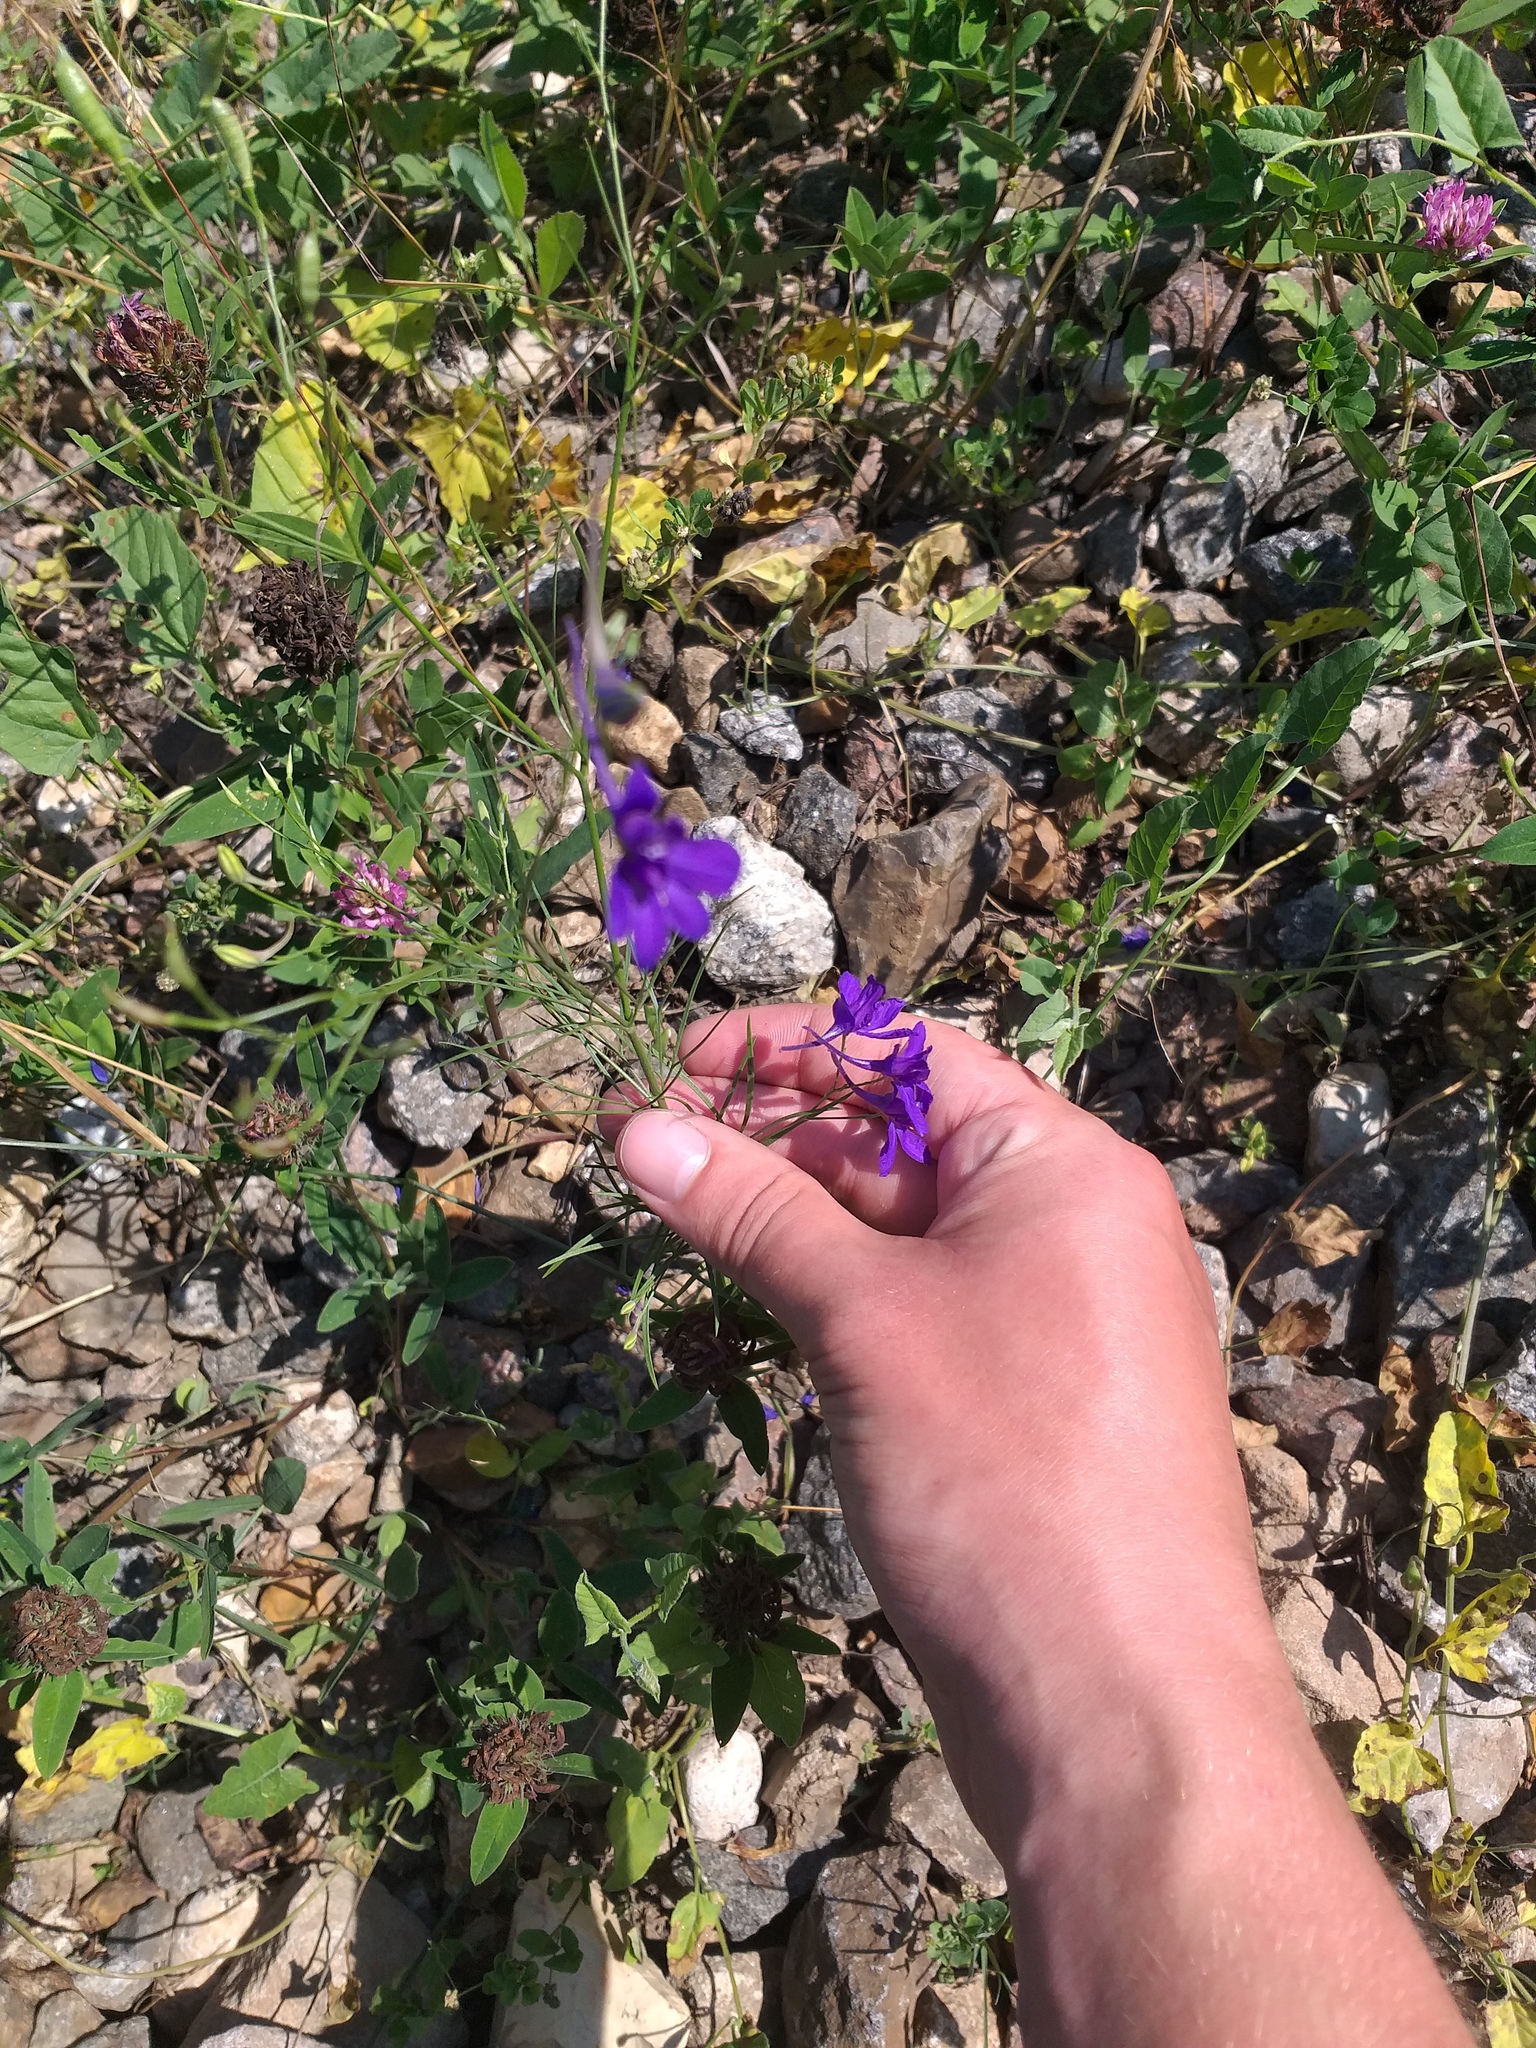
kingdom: Plantae
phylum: Tracheophyta
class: Magnoliopsida
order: Ranunculales
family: Ranunculaceae
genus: Delphinium
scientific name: Delphinium consolida
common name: Branching larkspur
